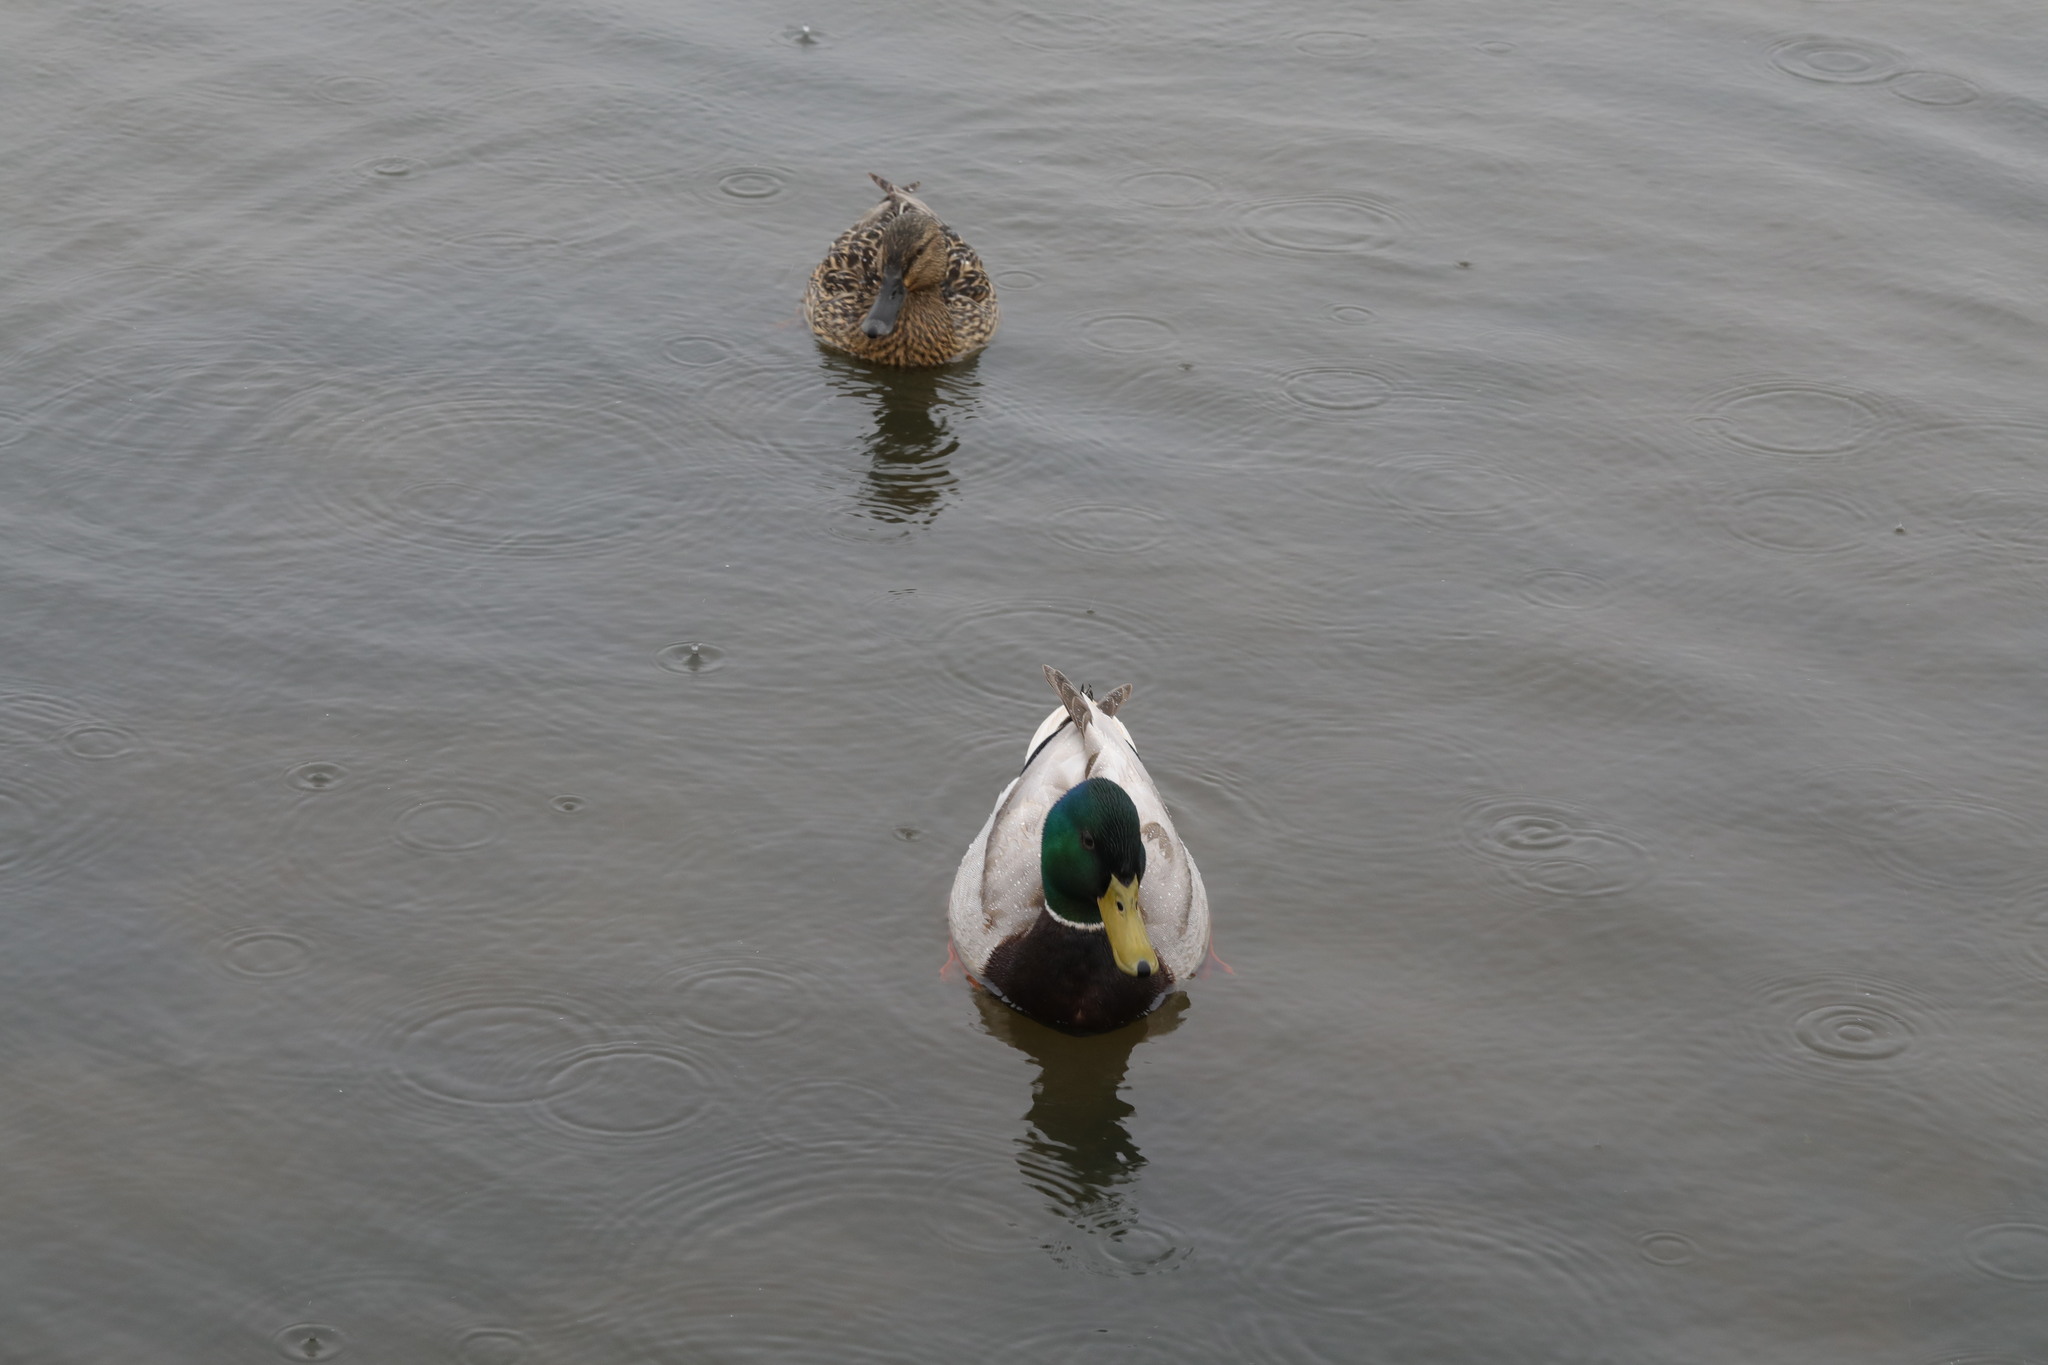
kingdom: Animalia
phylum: Chordata
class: Aves
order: Anseriformes
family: Anatidae
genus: Anas
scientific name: Anas platyrhynchos
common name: Mallard
